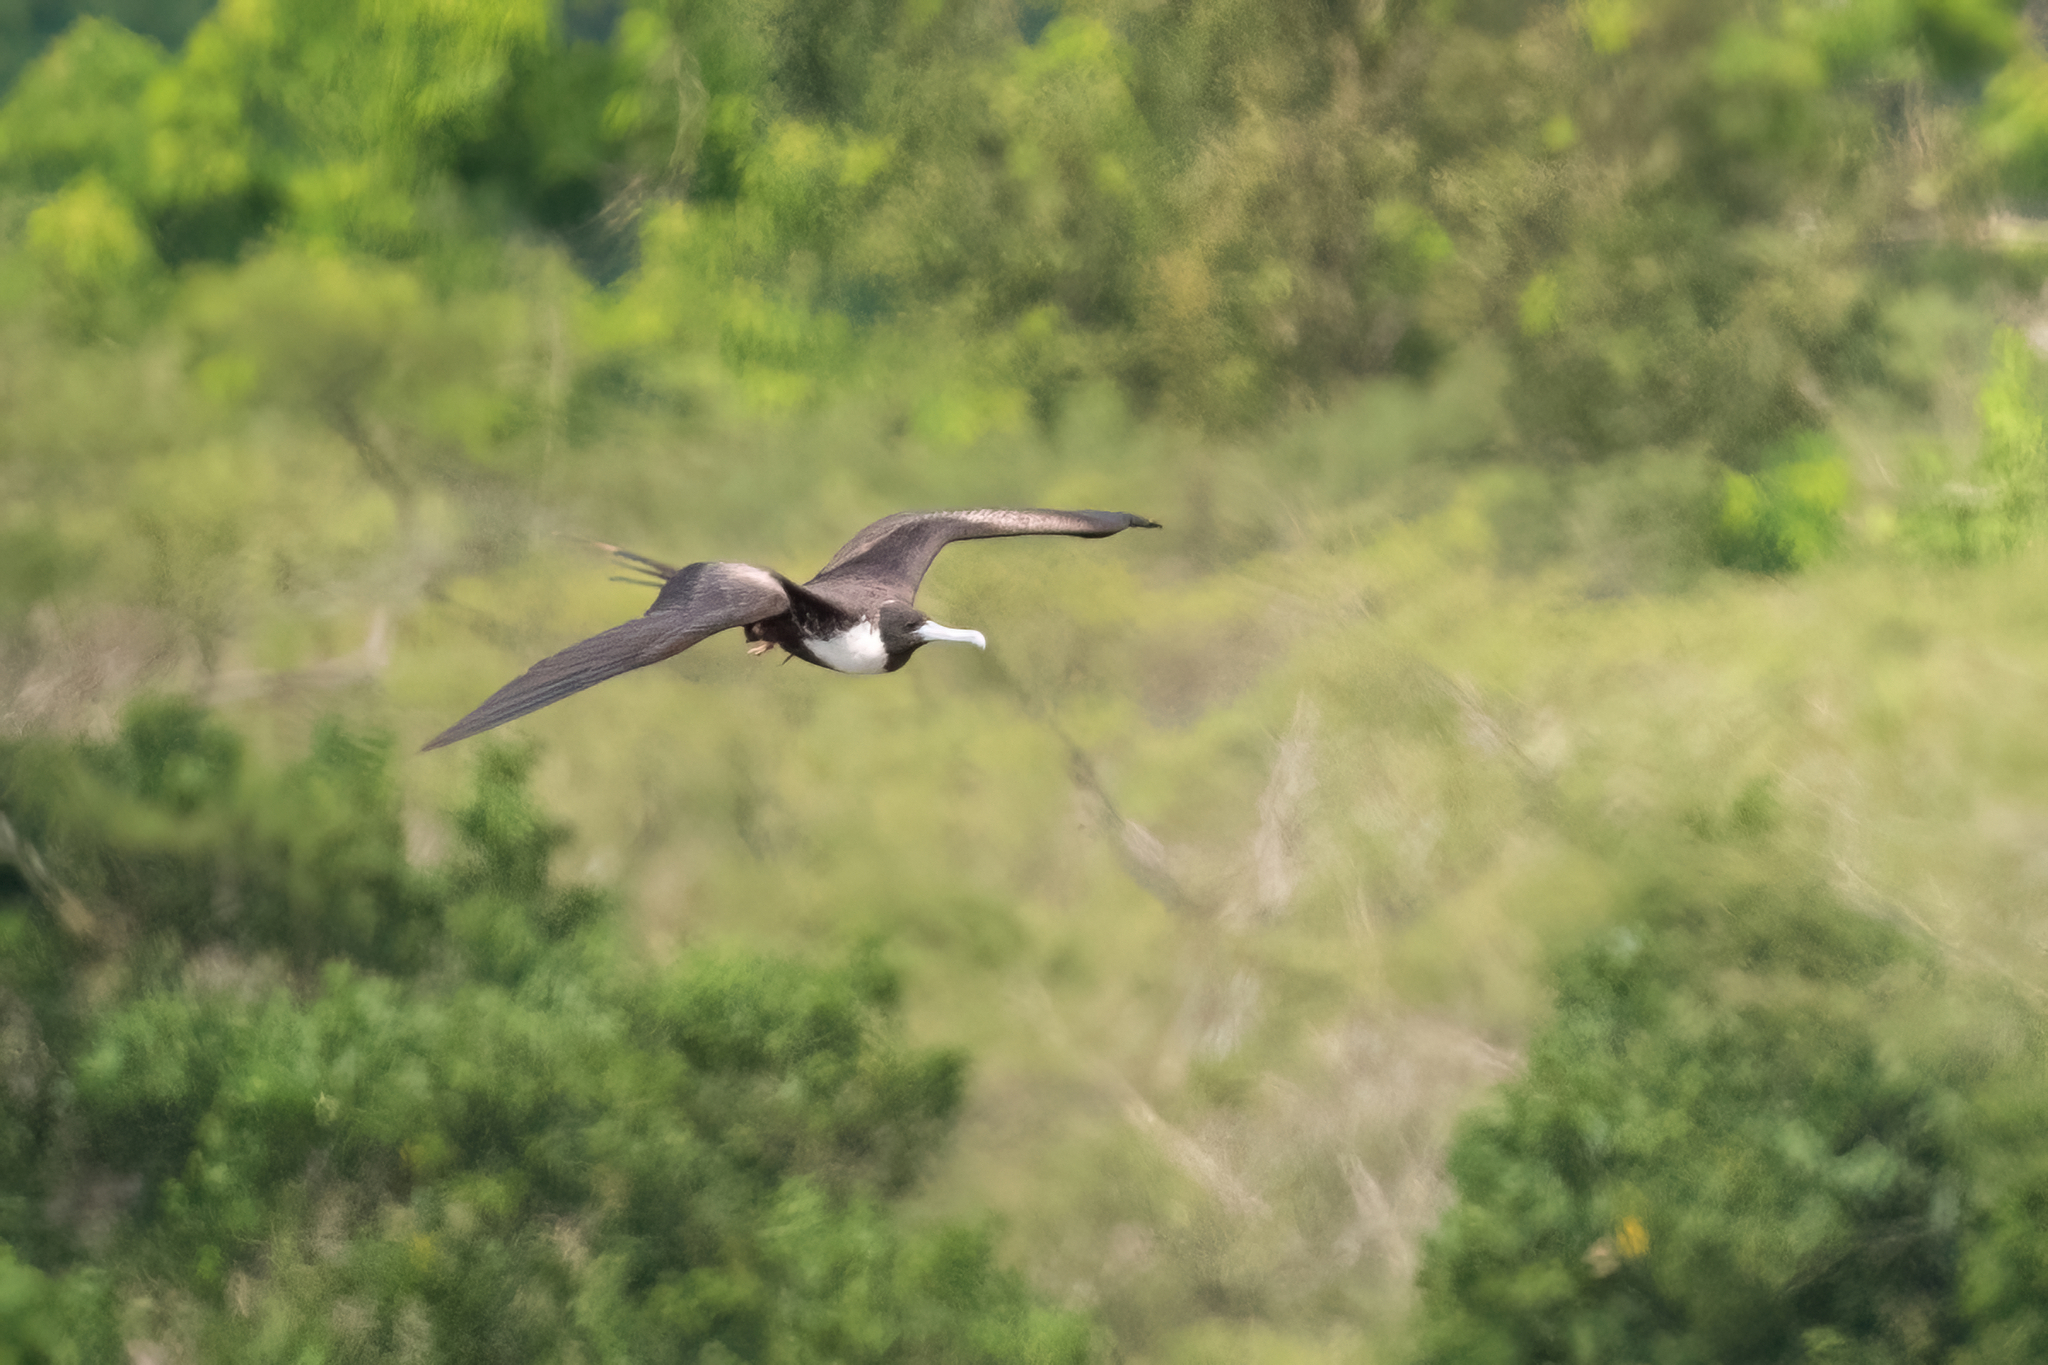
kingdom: Animalia
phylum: Chordata
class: Aves
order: Suliformes
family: Fregatidae
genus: Fregata
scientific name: Fregata magnificens
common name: Magnificent frigatebird
